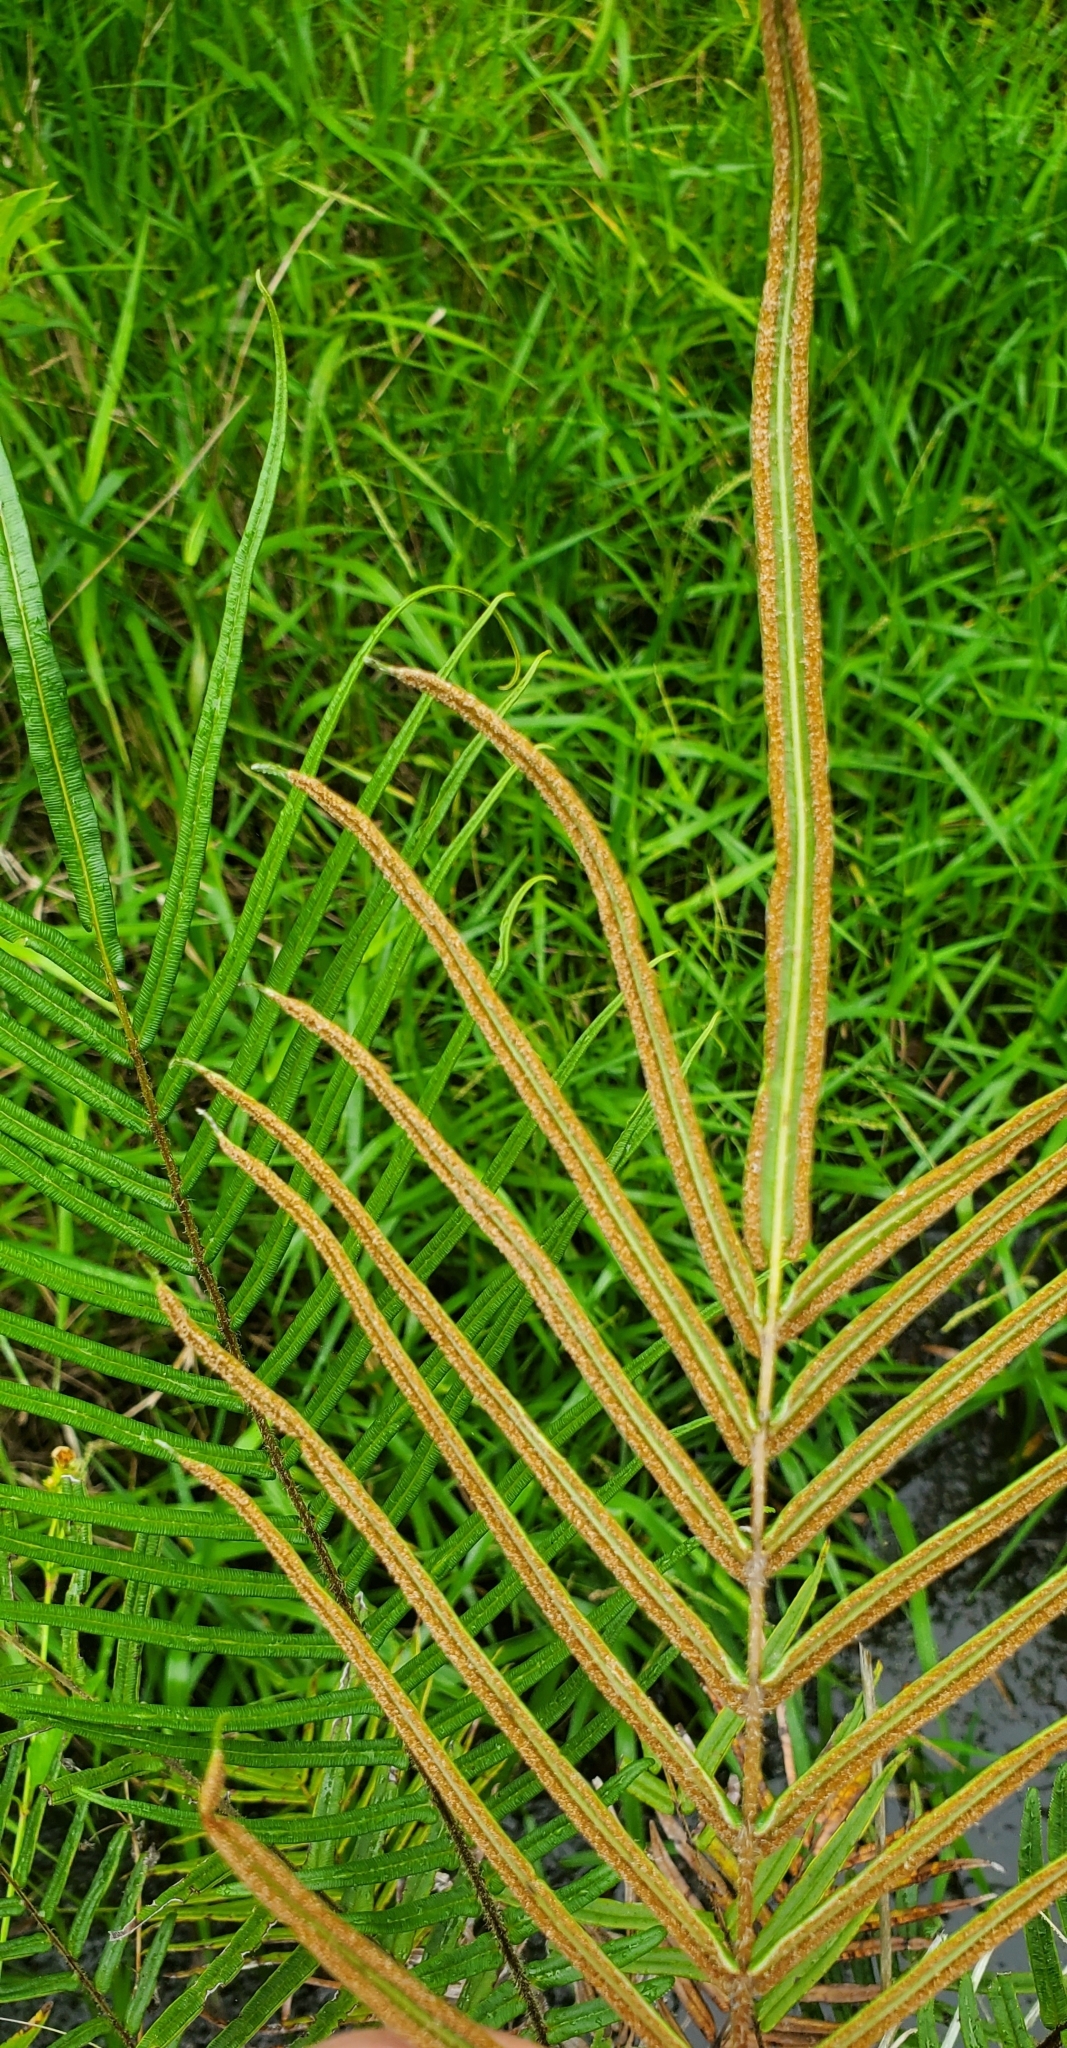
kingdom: Plantae
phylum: Tracheophyta
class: Polypodiopsida
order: Polypodiales
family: Pteridaceae
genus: Pteris
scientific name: Pteris vittata
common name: Ladder brake
